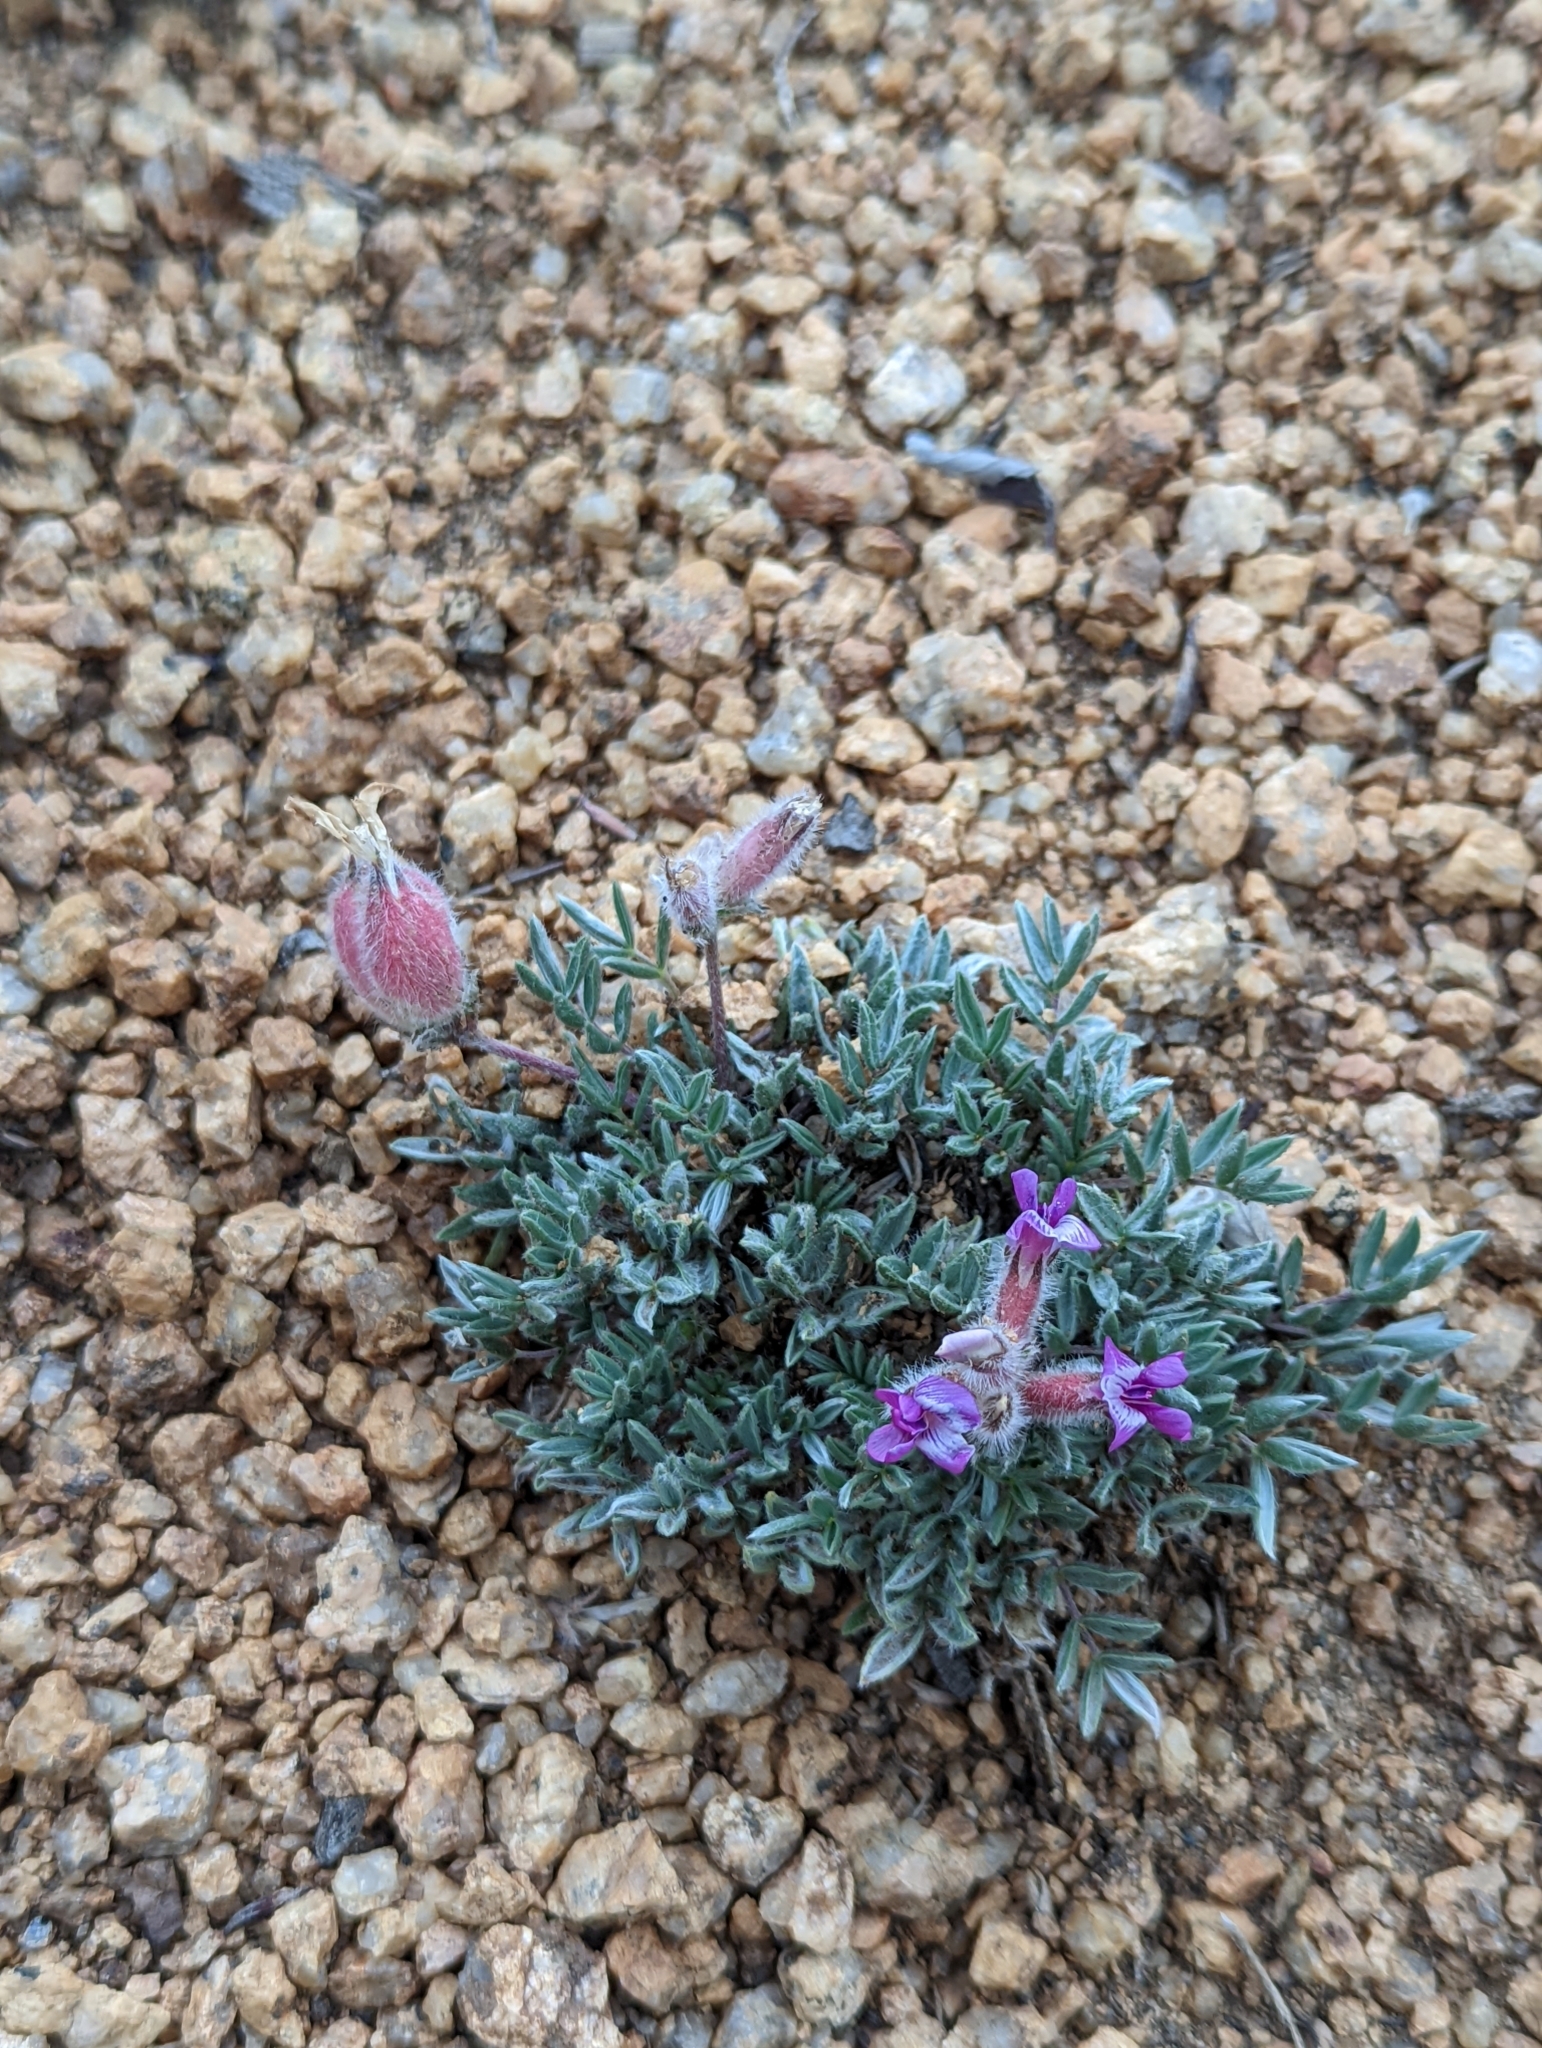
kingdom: Plantae
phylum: Tracheophyta
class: Magnoliopsida
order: Fabales
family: Fabaceae
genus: Oxytropis
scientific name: Oxytropis multiceps
